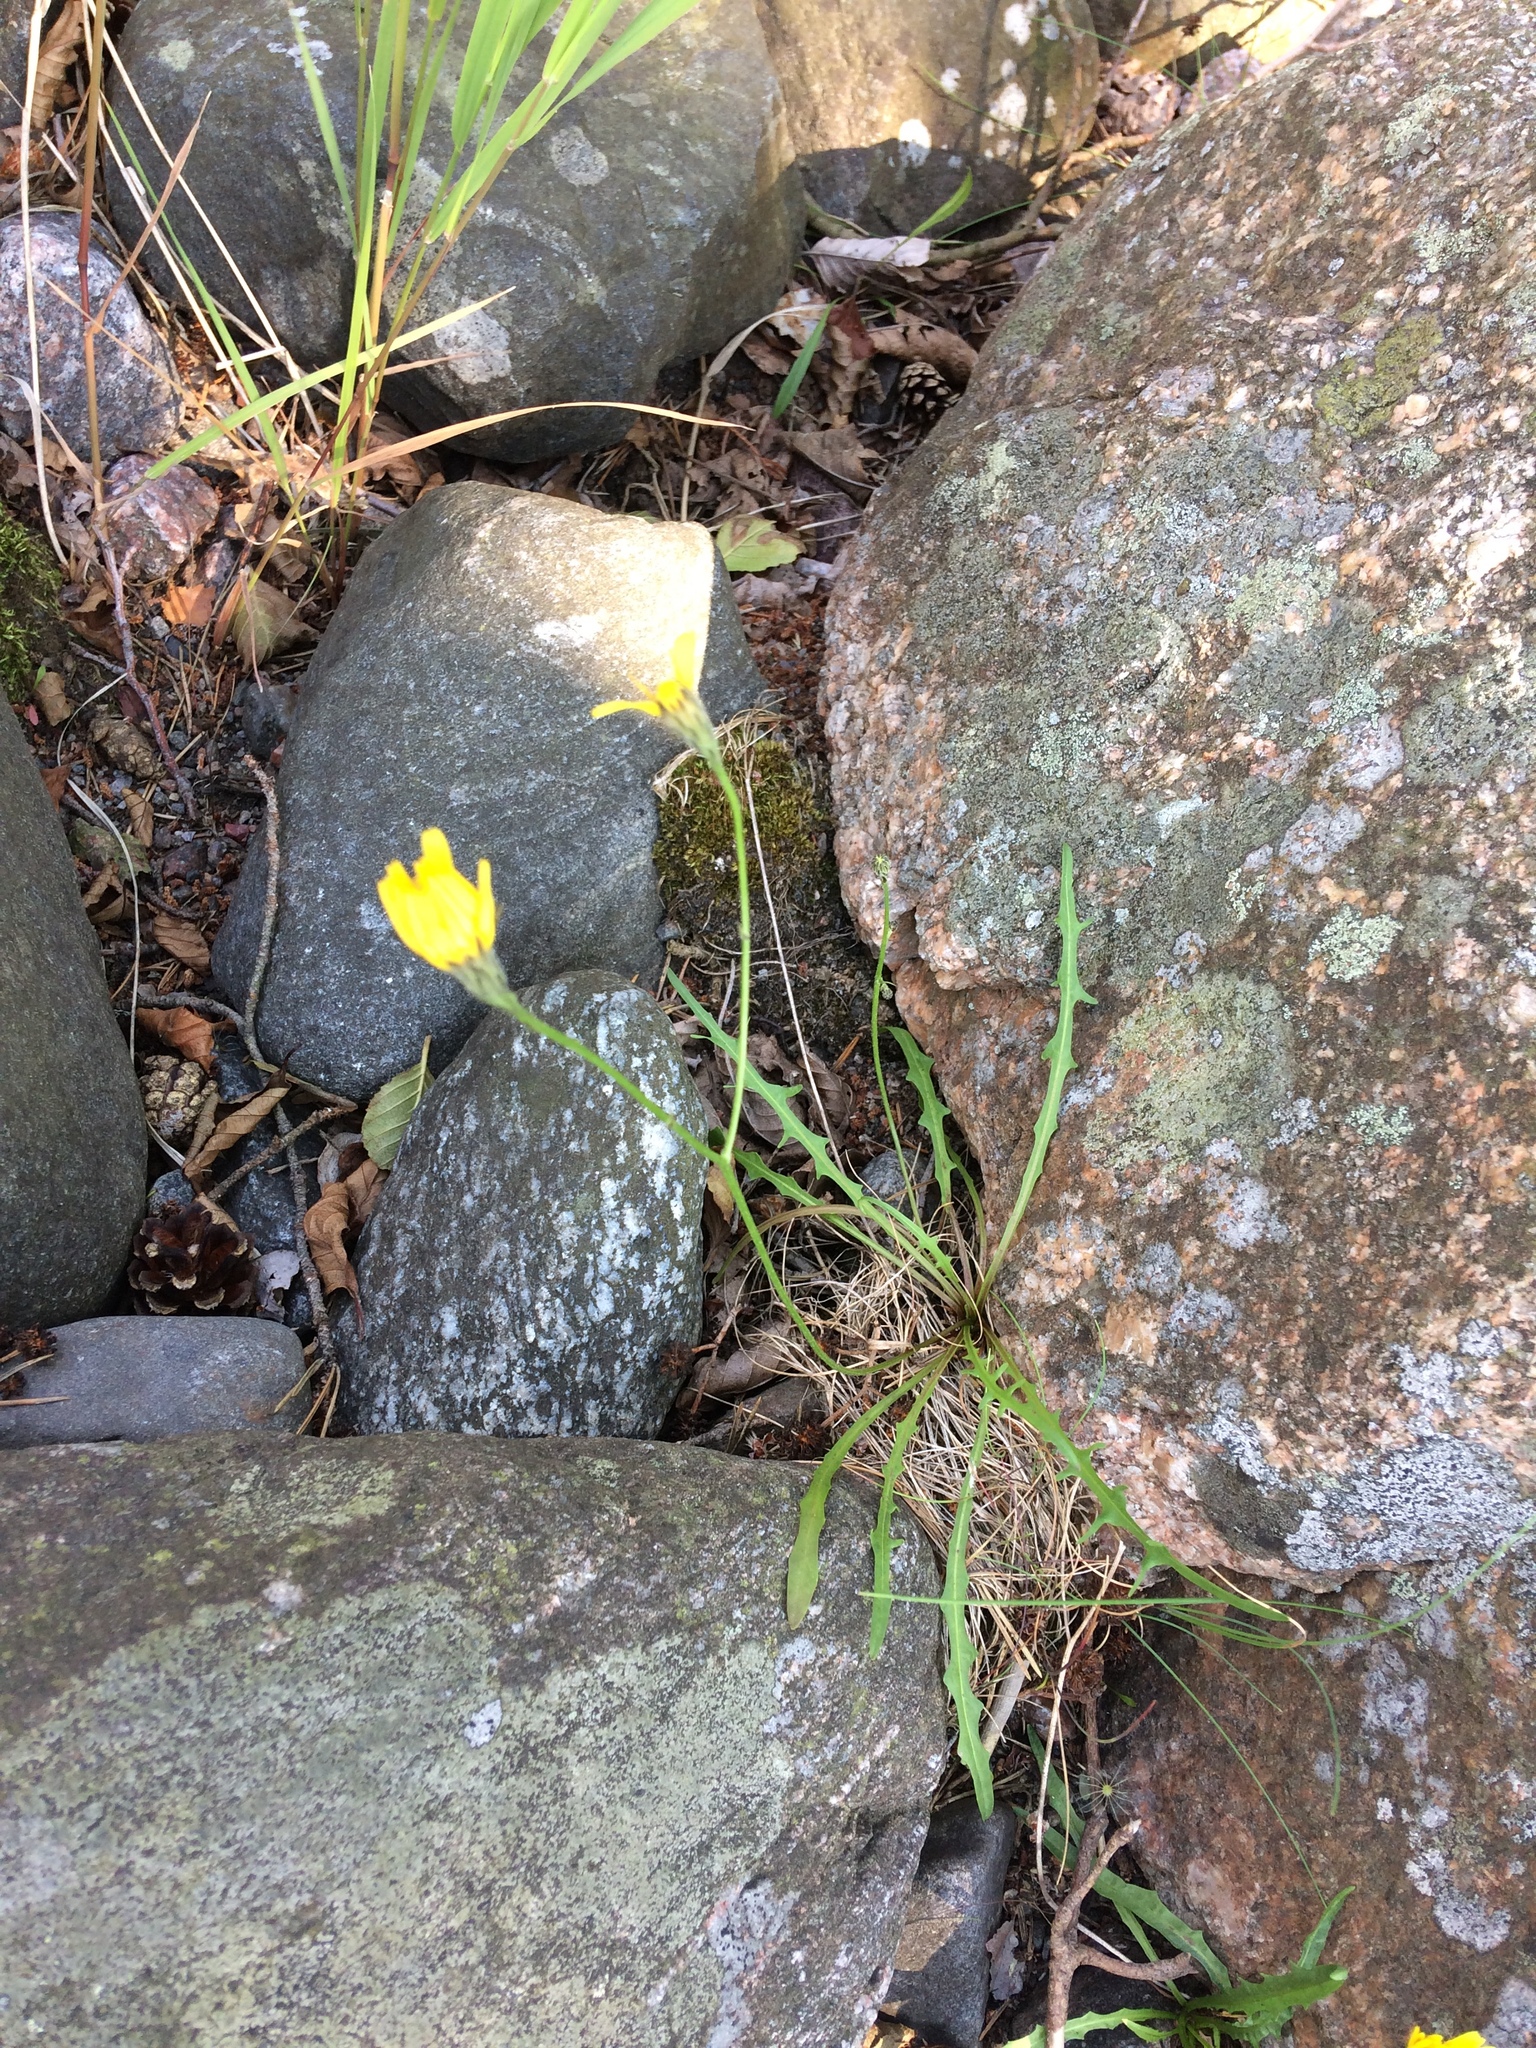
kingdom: Plantae
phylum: Tracheophyta
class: Magnoliopsida
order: Asterales
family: Asteraceae
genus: Scorzoneroides
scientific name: Scorzoneroides autumnalis
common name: Autumn hawkbit
